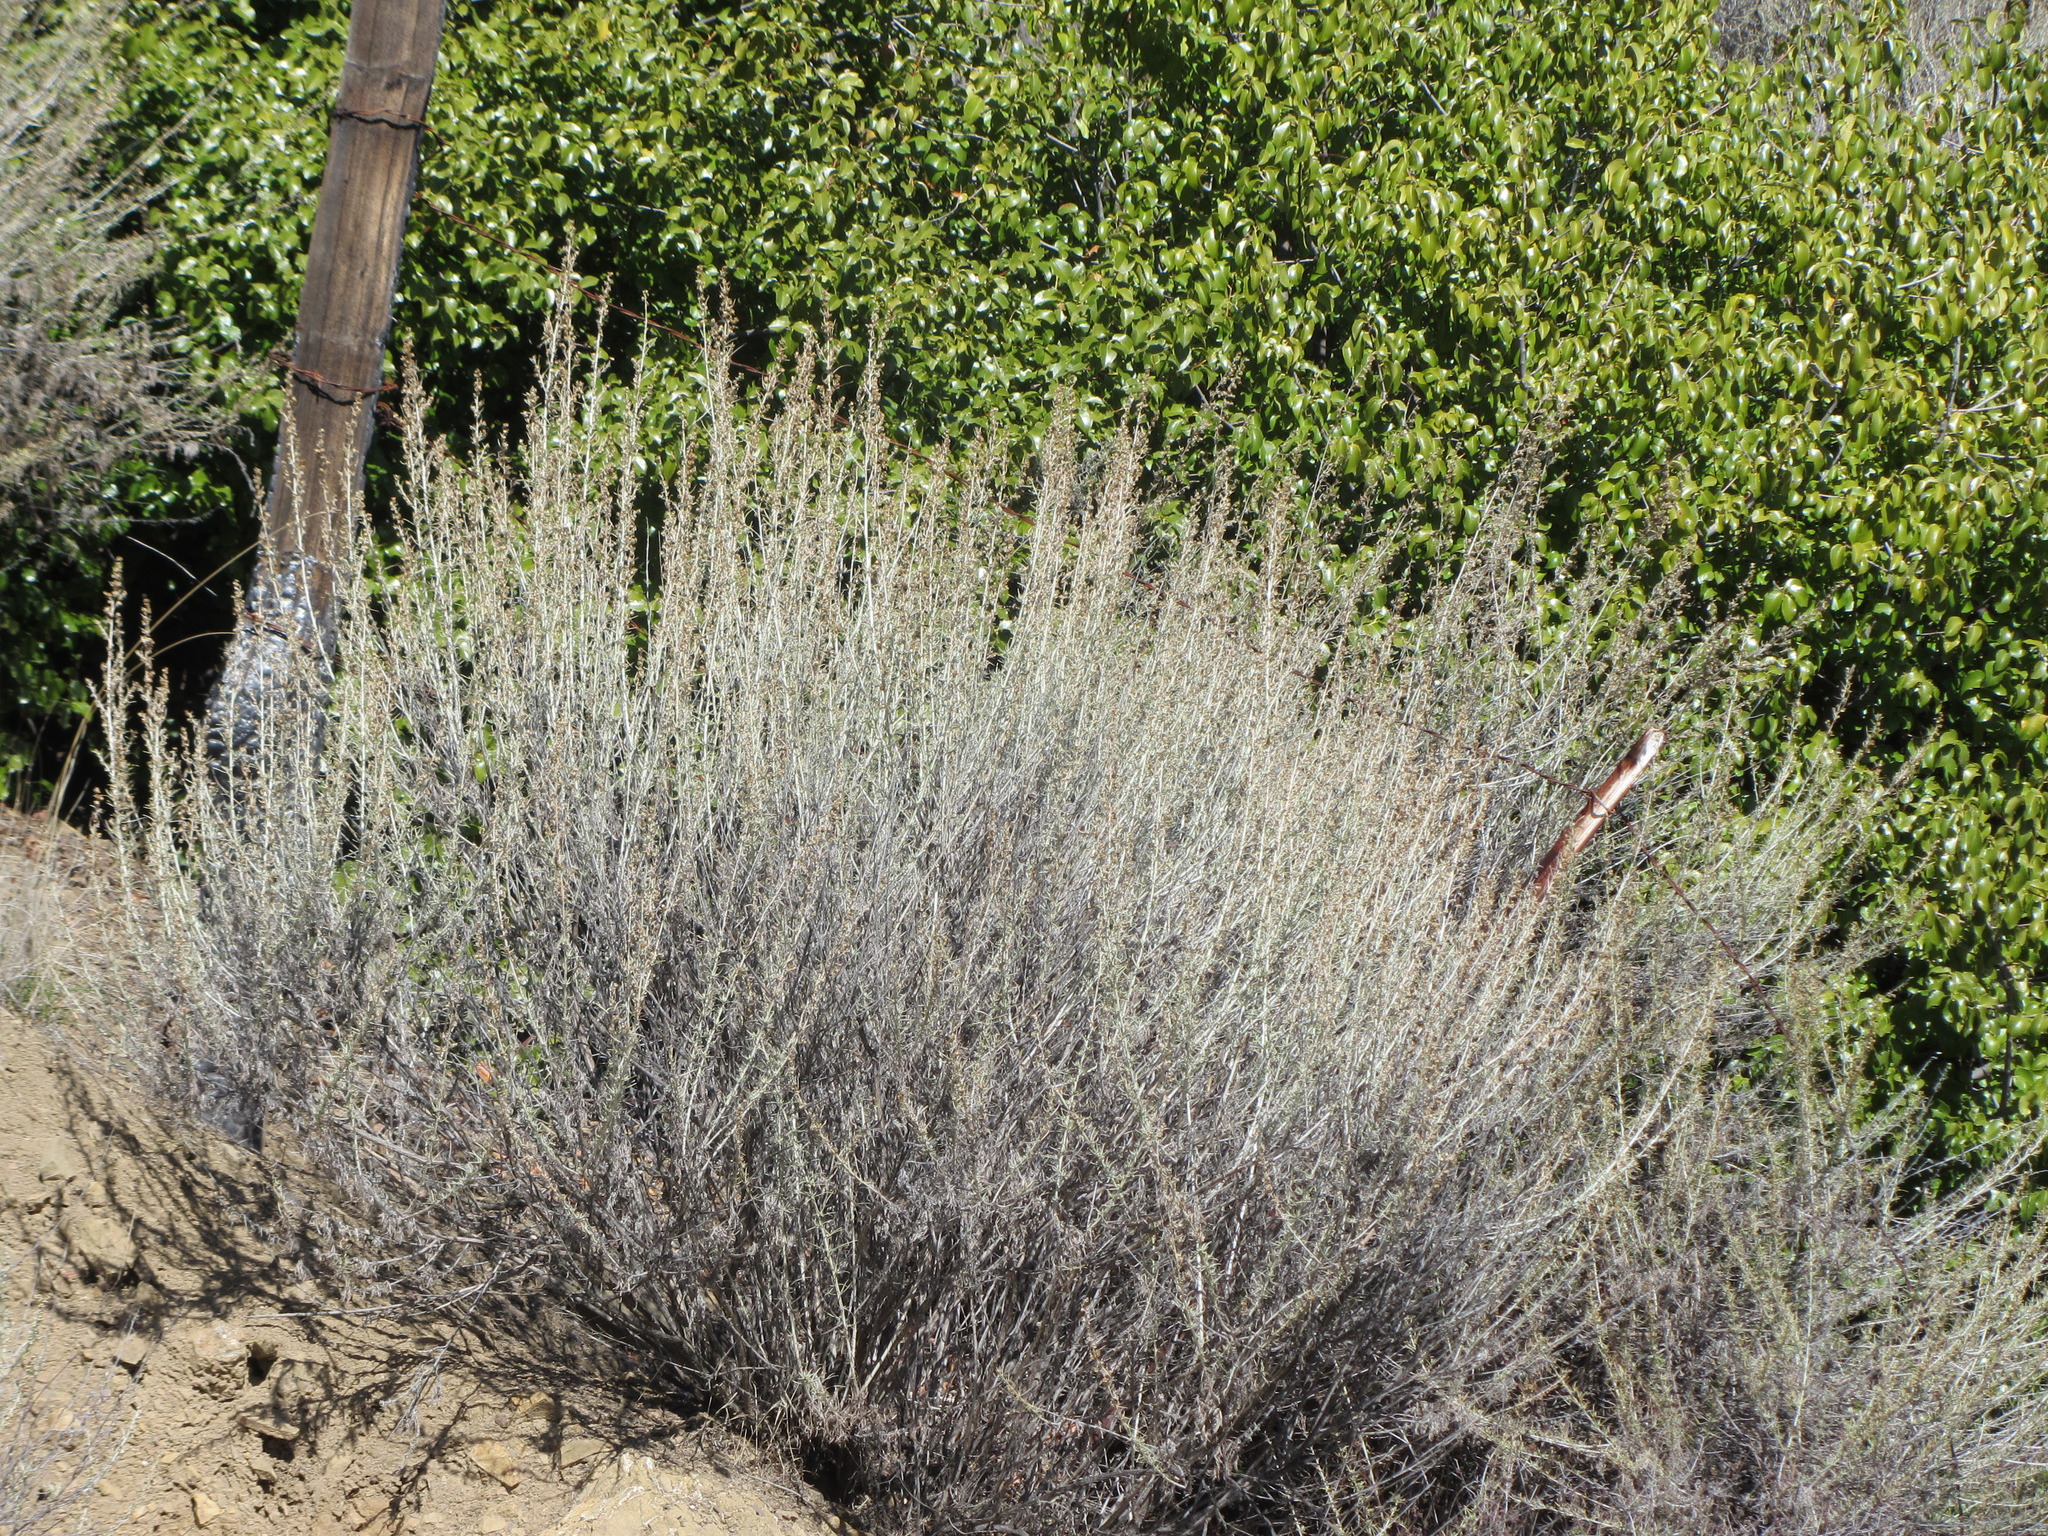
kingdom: Plantae
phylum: Tracheophyta
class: Magnoliopsida
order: Asterales
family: Asteraceae
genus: Artemisia
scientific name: Artemisia californica
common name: California sagebrush
